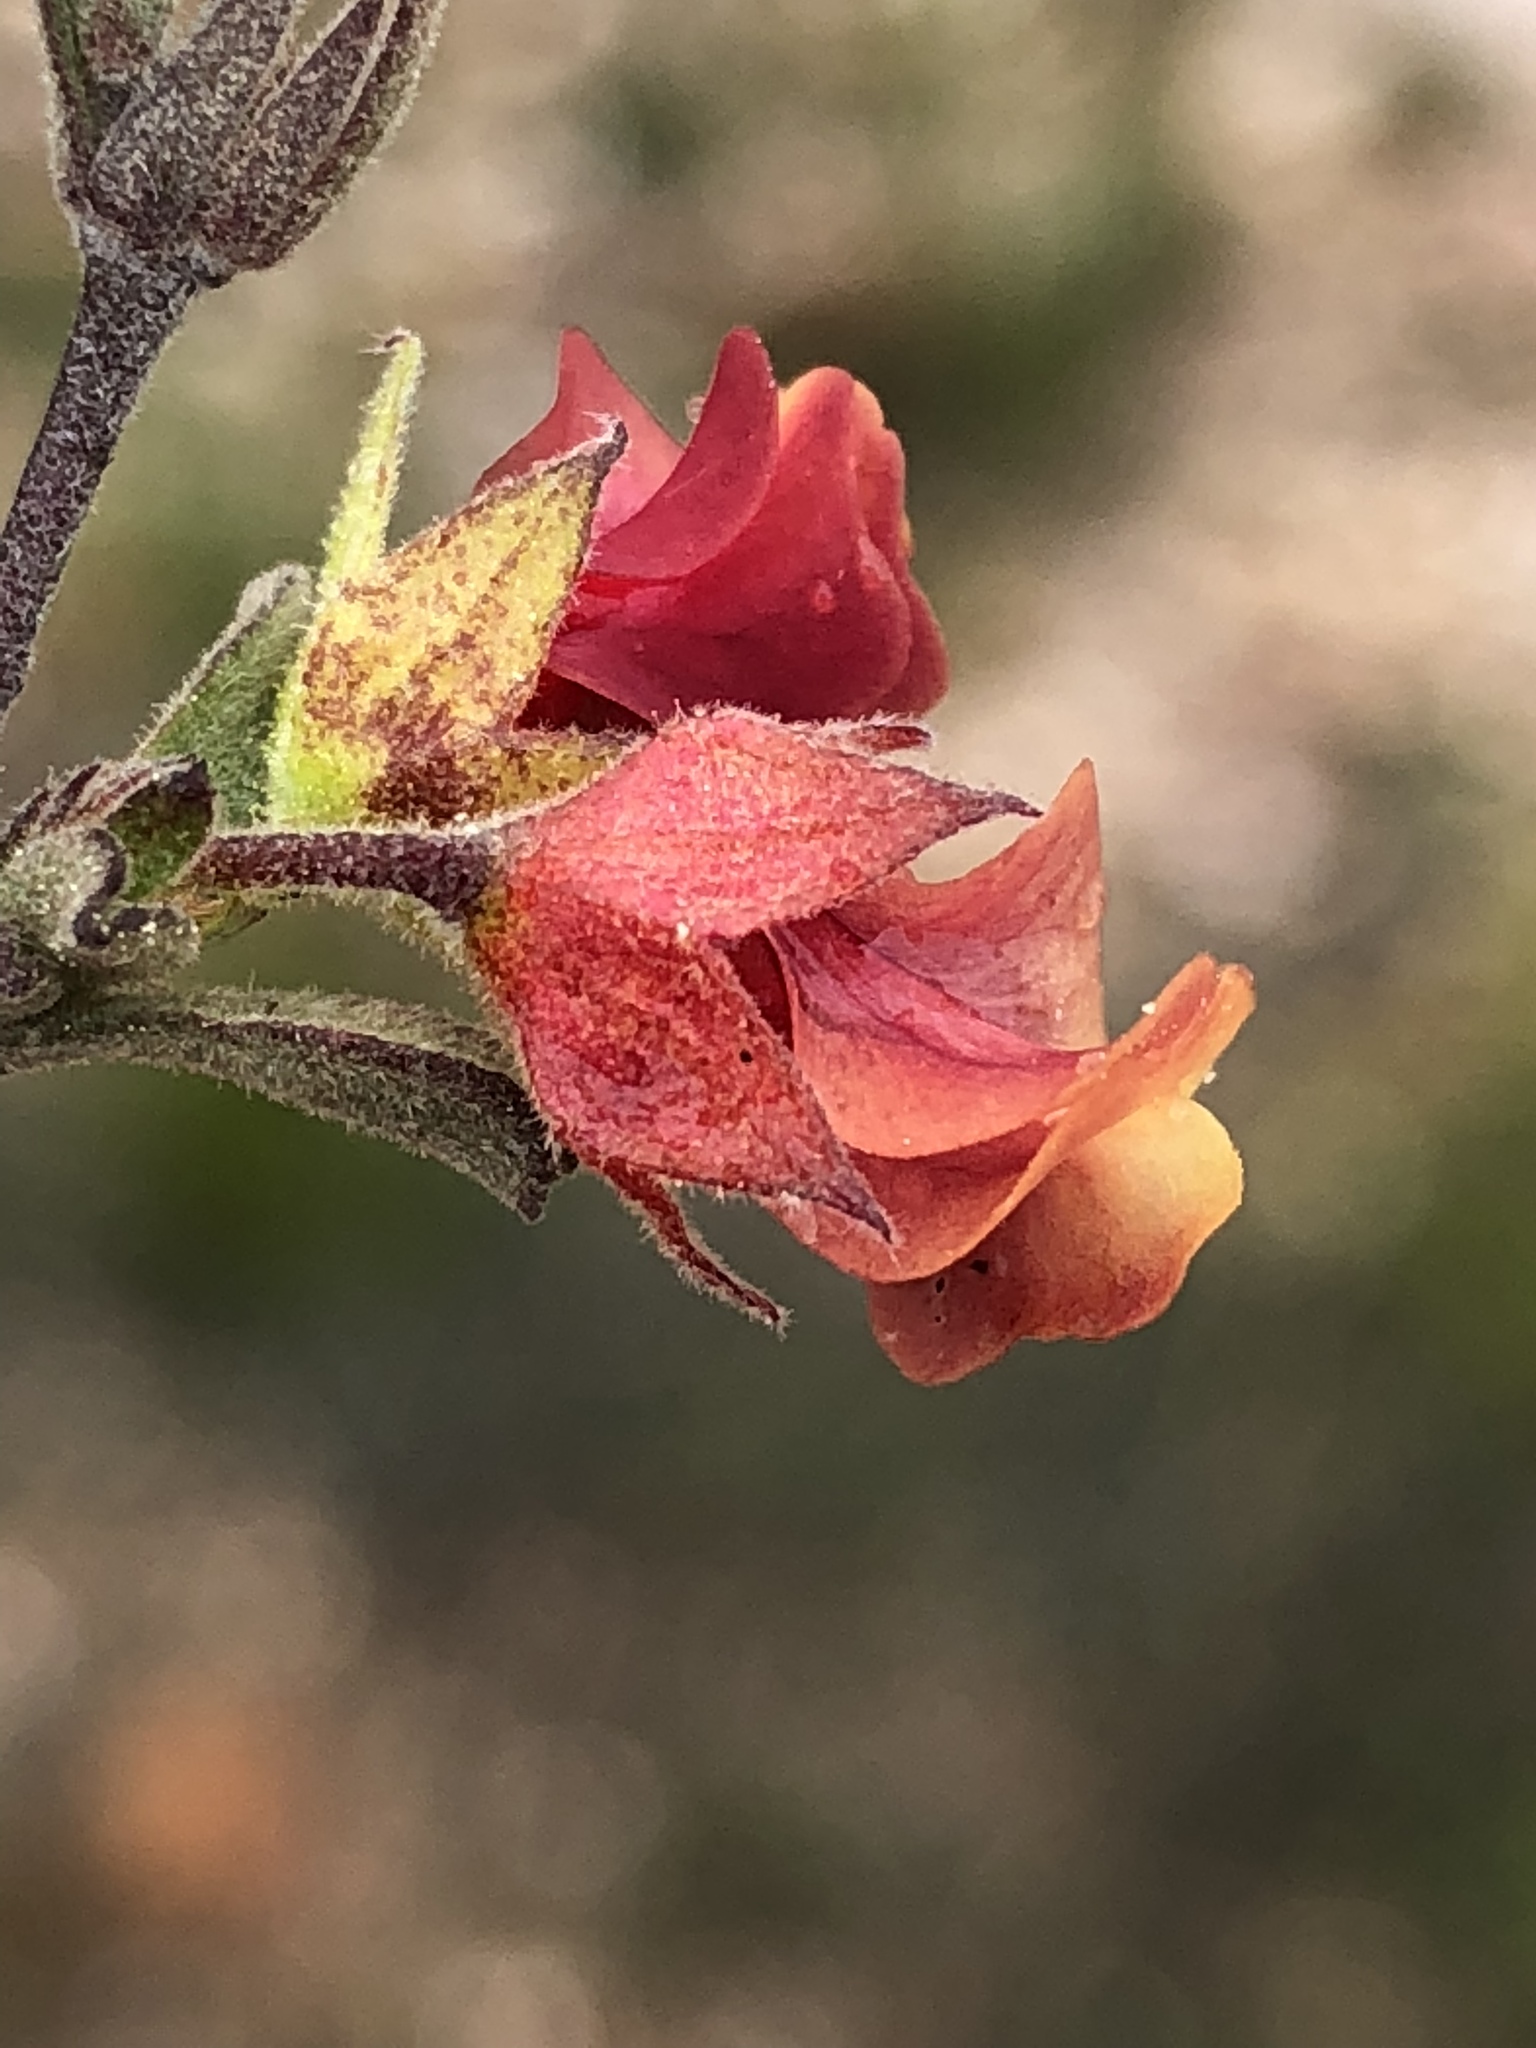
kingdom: Plantae
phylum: Tracheophyta
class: Magnoliopsida
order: Malvales
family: Malvaceae
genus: Hermannia
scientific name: Hermannia angularis
